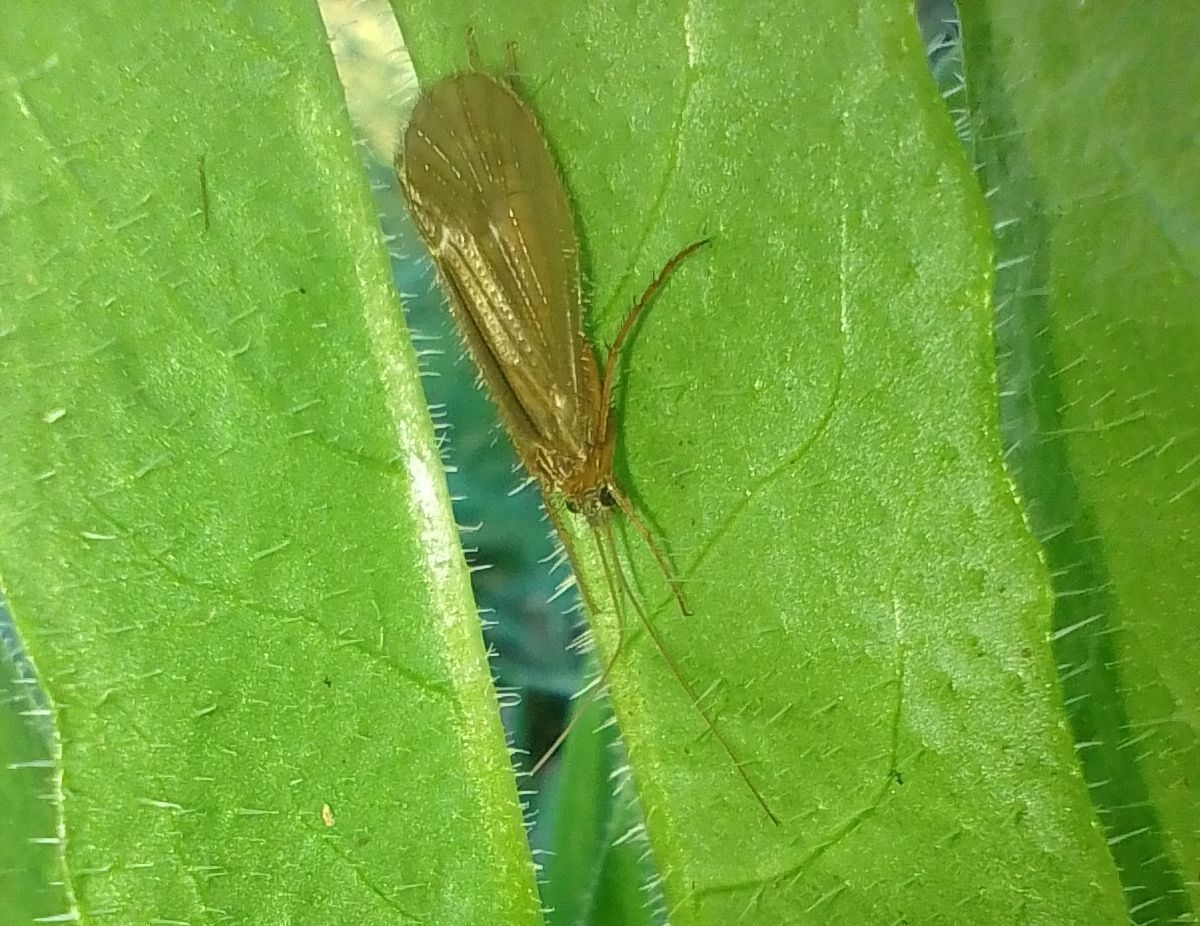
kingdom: Animalia
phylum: Arthropoda
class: Insecta
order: Trichoptera
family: Limnephilidae
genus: Chaetopteryx
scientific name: Chaetopteryx villosa
